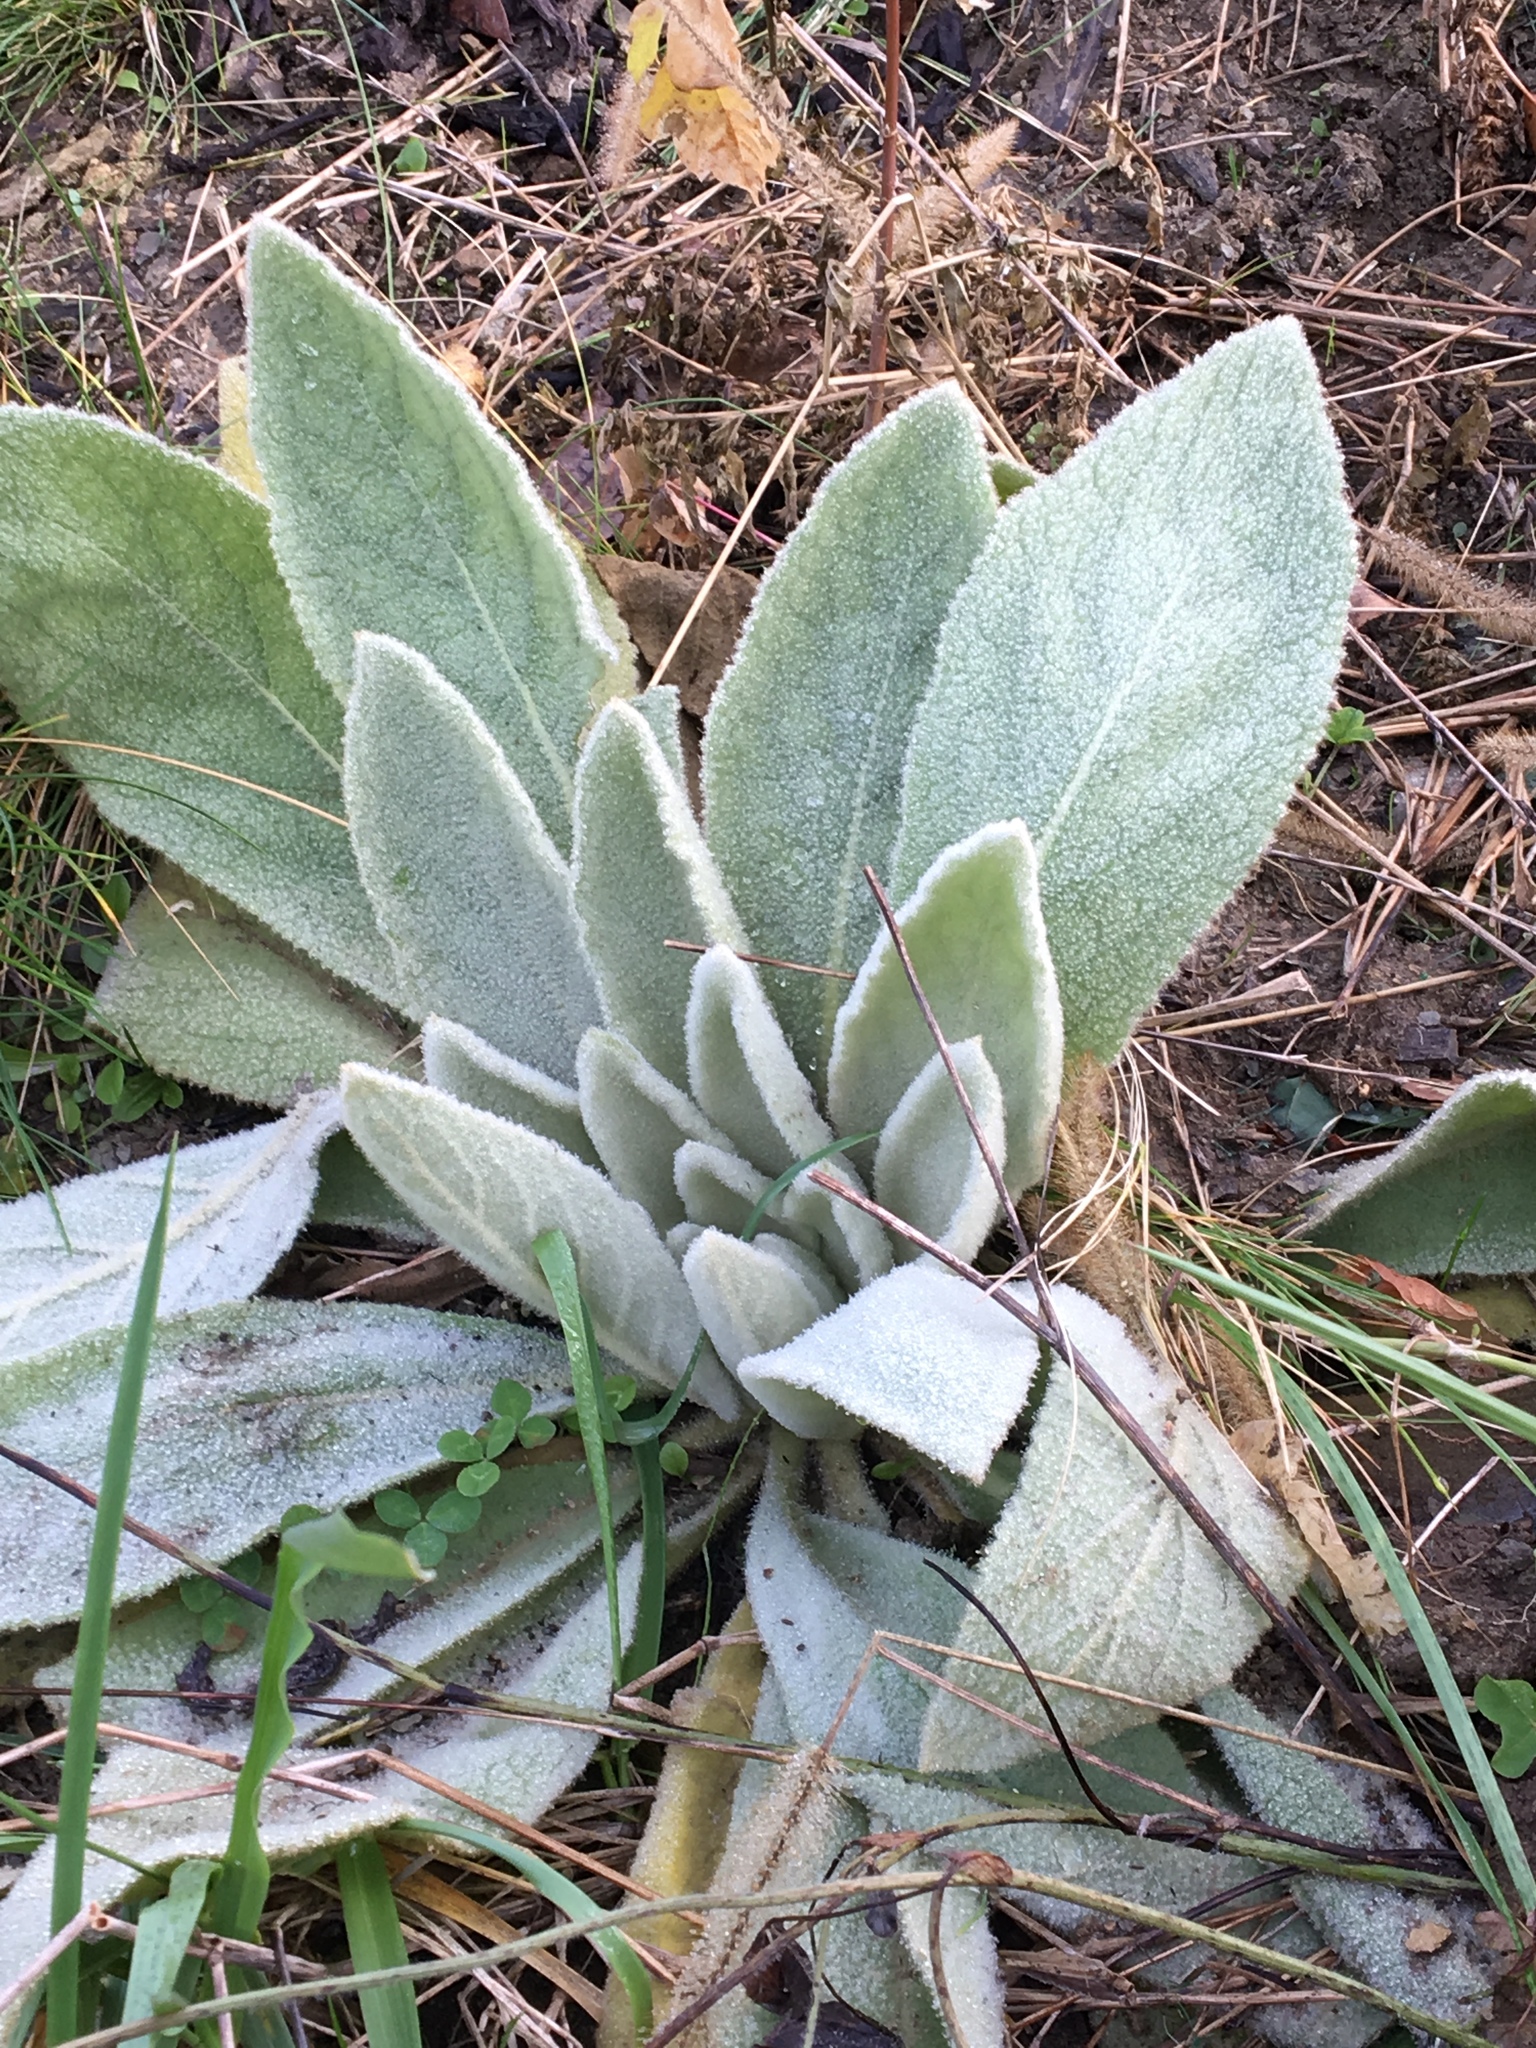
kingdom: Plantae
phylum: Tracheophyta
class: Magnoliopsida
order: Lamiales
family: Scrophulariaceae
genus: Verbascum
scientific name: Verbascum thapsus
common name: Common mullein
